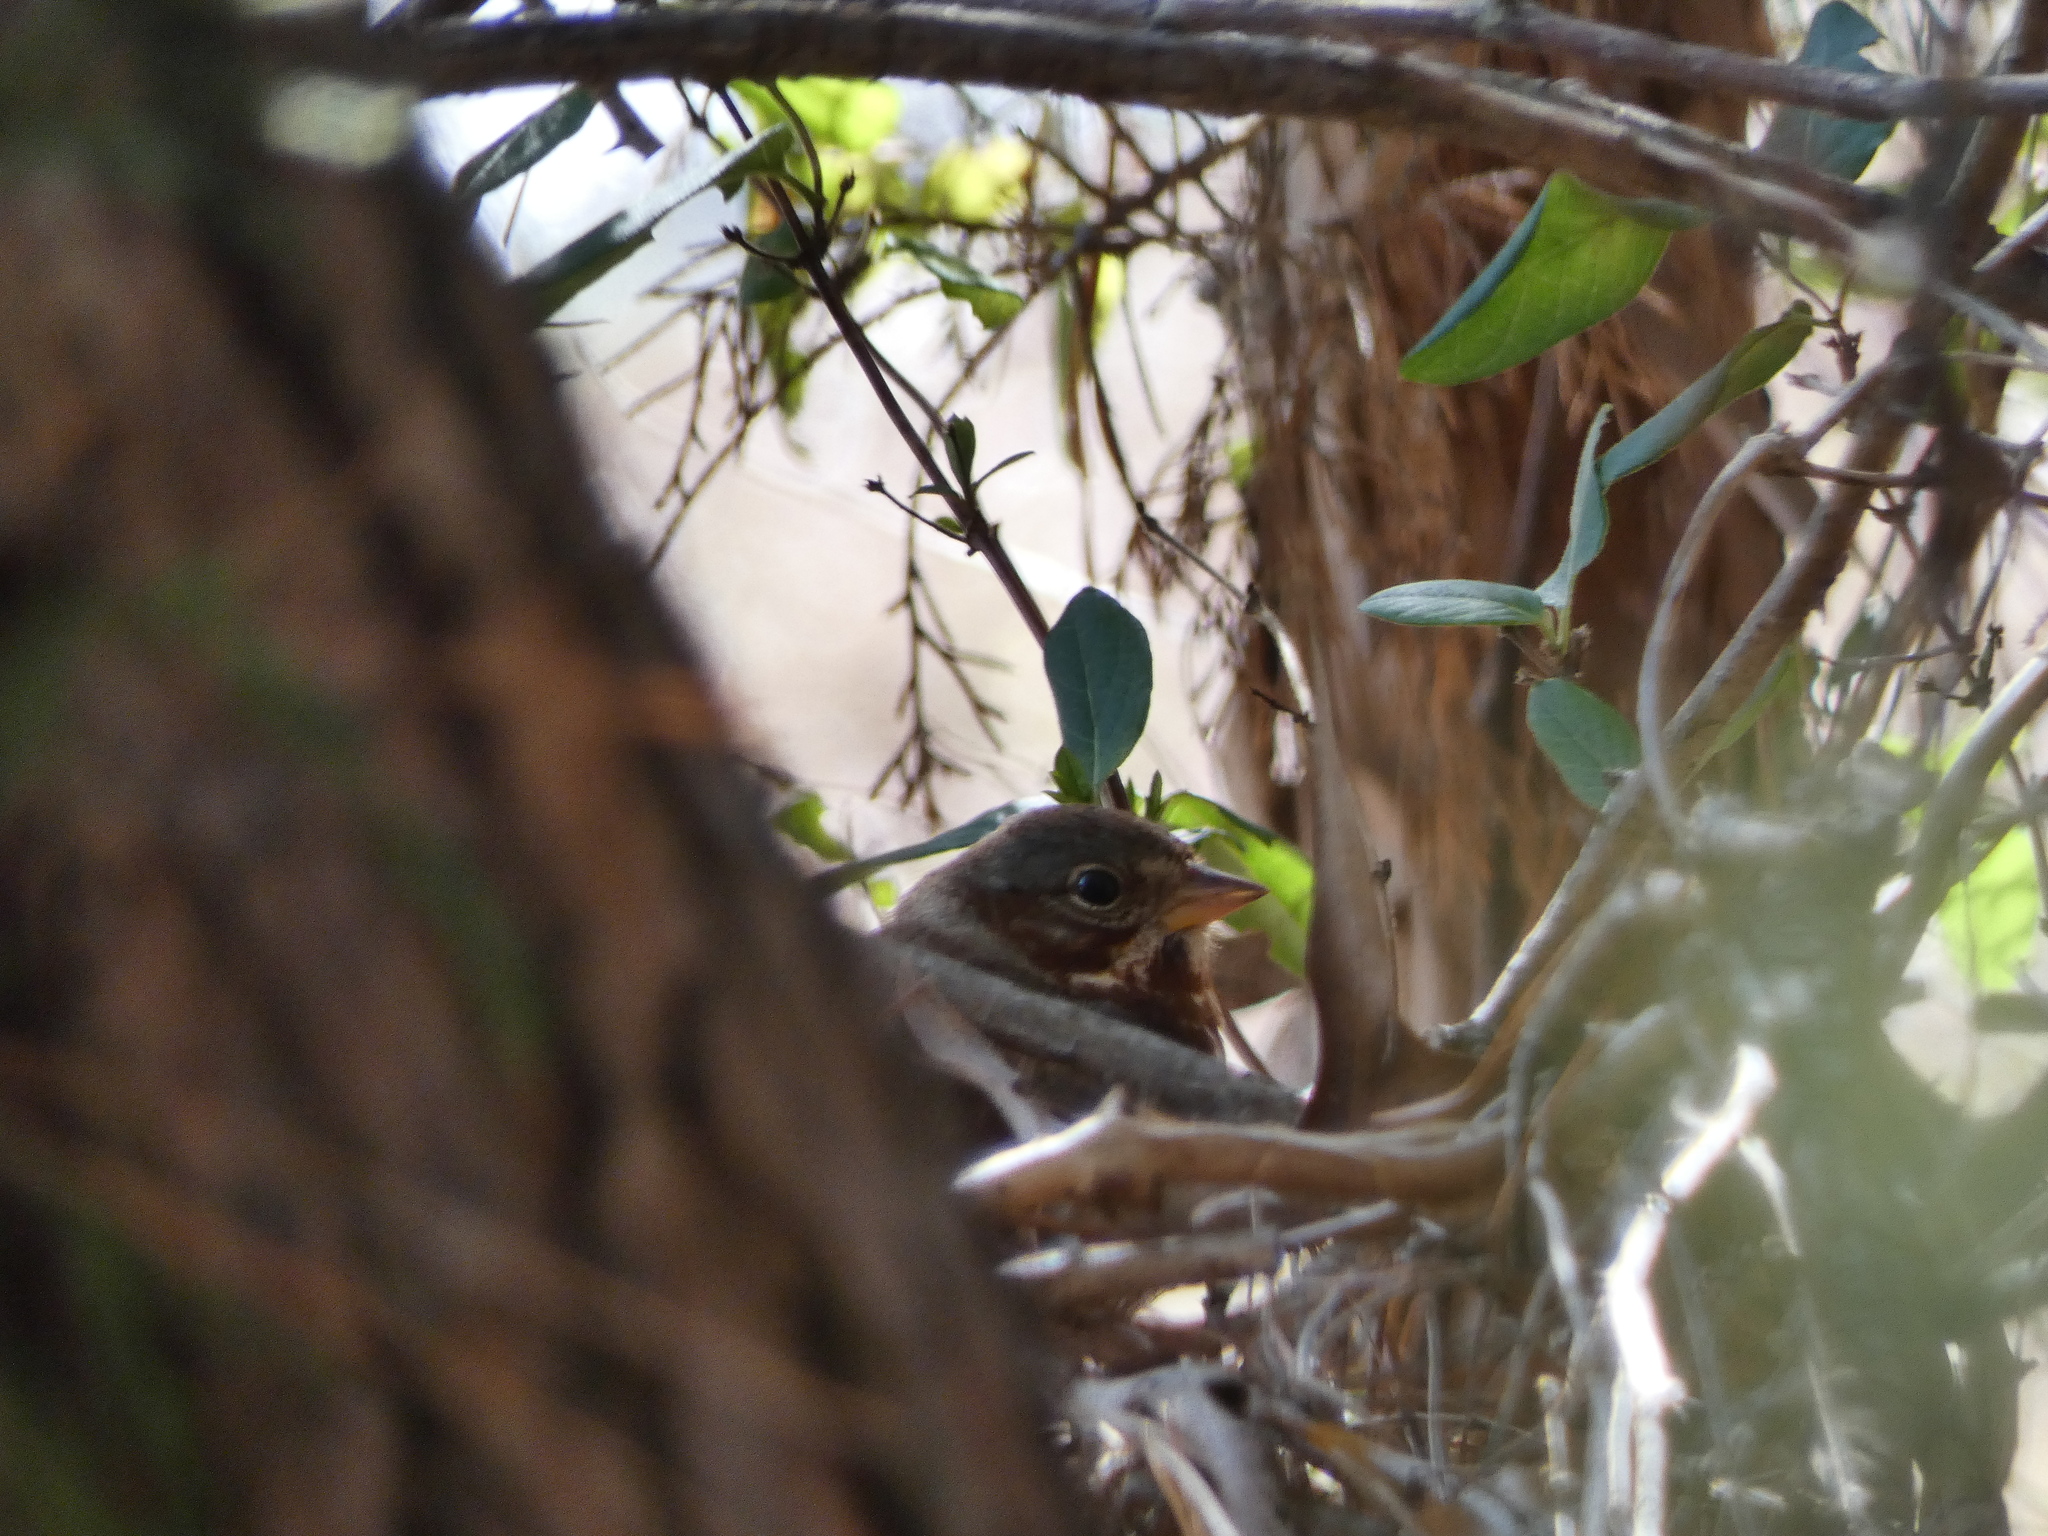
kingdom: Animalia
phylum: Chordata
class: Aves
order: Passeriformes
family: Passerellidae
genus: Passerella
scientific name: Passerella iliaca
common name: Fox sparrow
